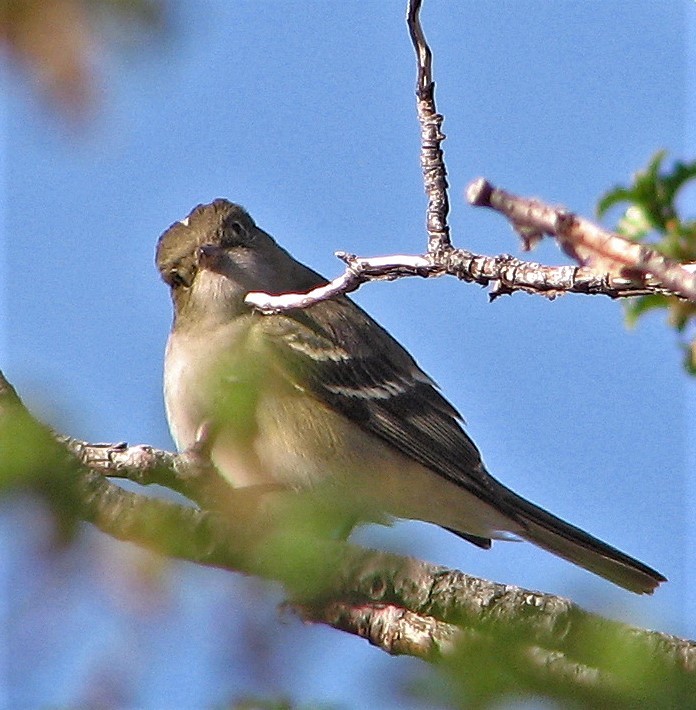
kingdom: Animalia
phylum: Chordata
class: Aves
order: Passeriformes
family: Tyrannidae
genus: Elaenia
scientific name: Elaenia albiceps
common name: White-crested elaenia
